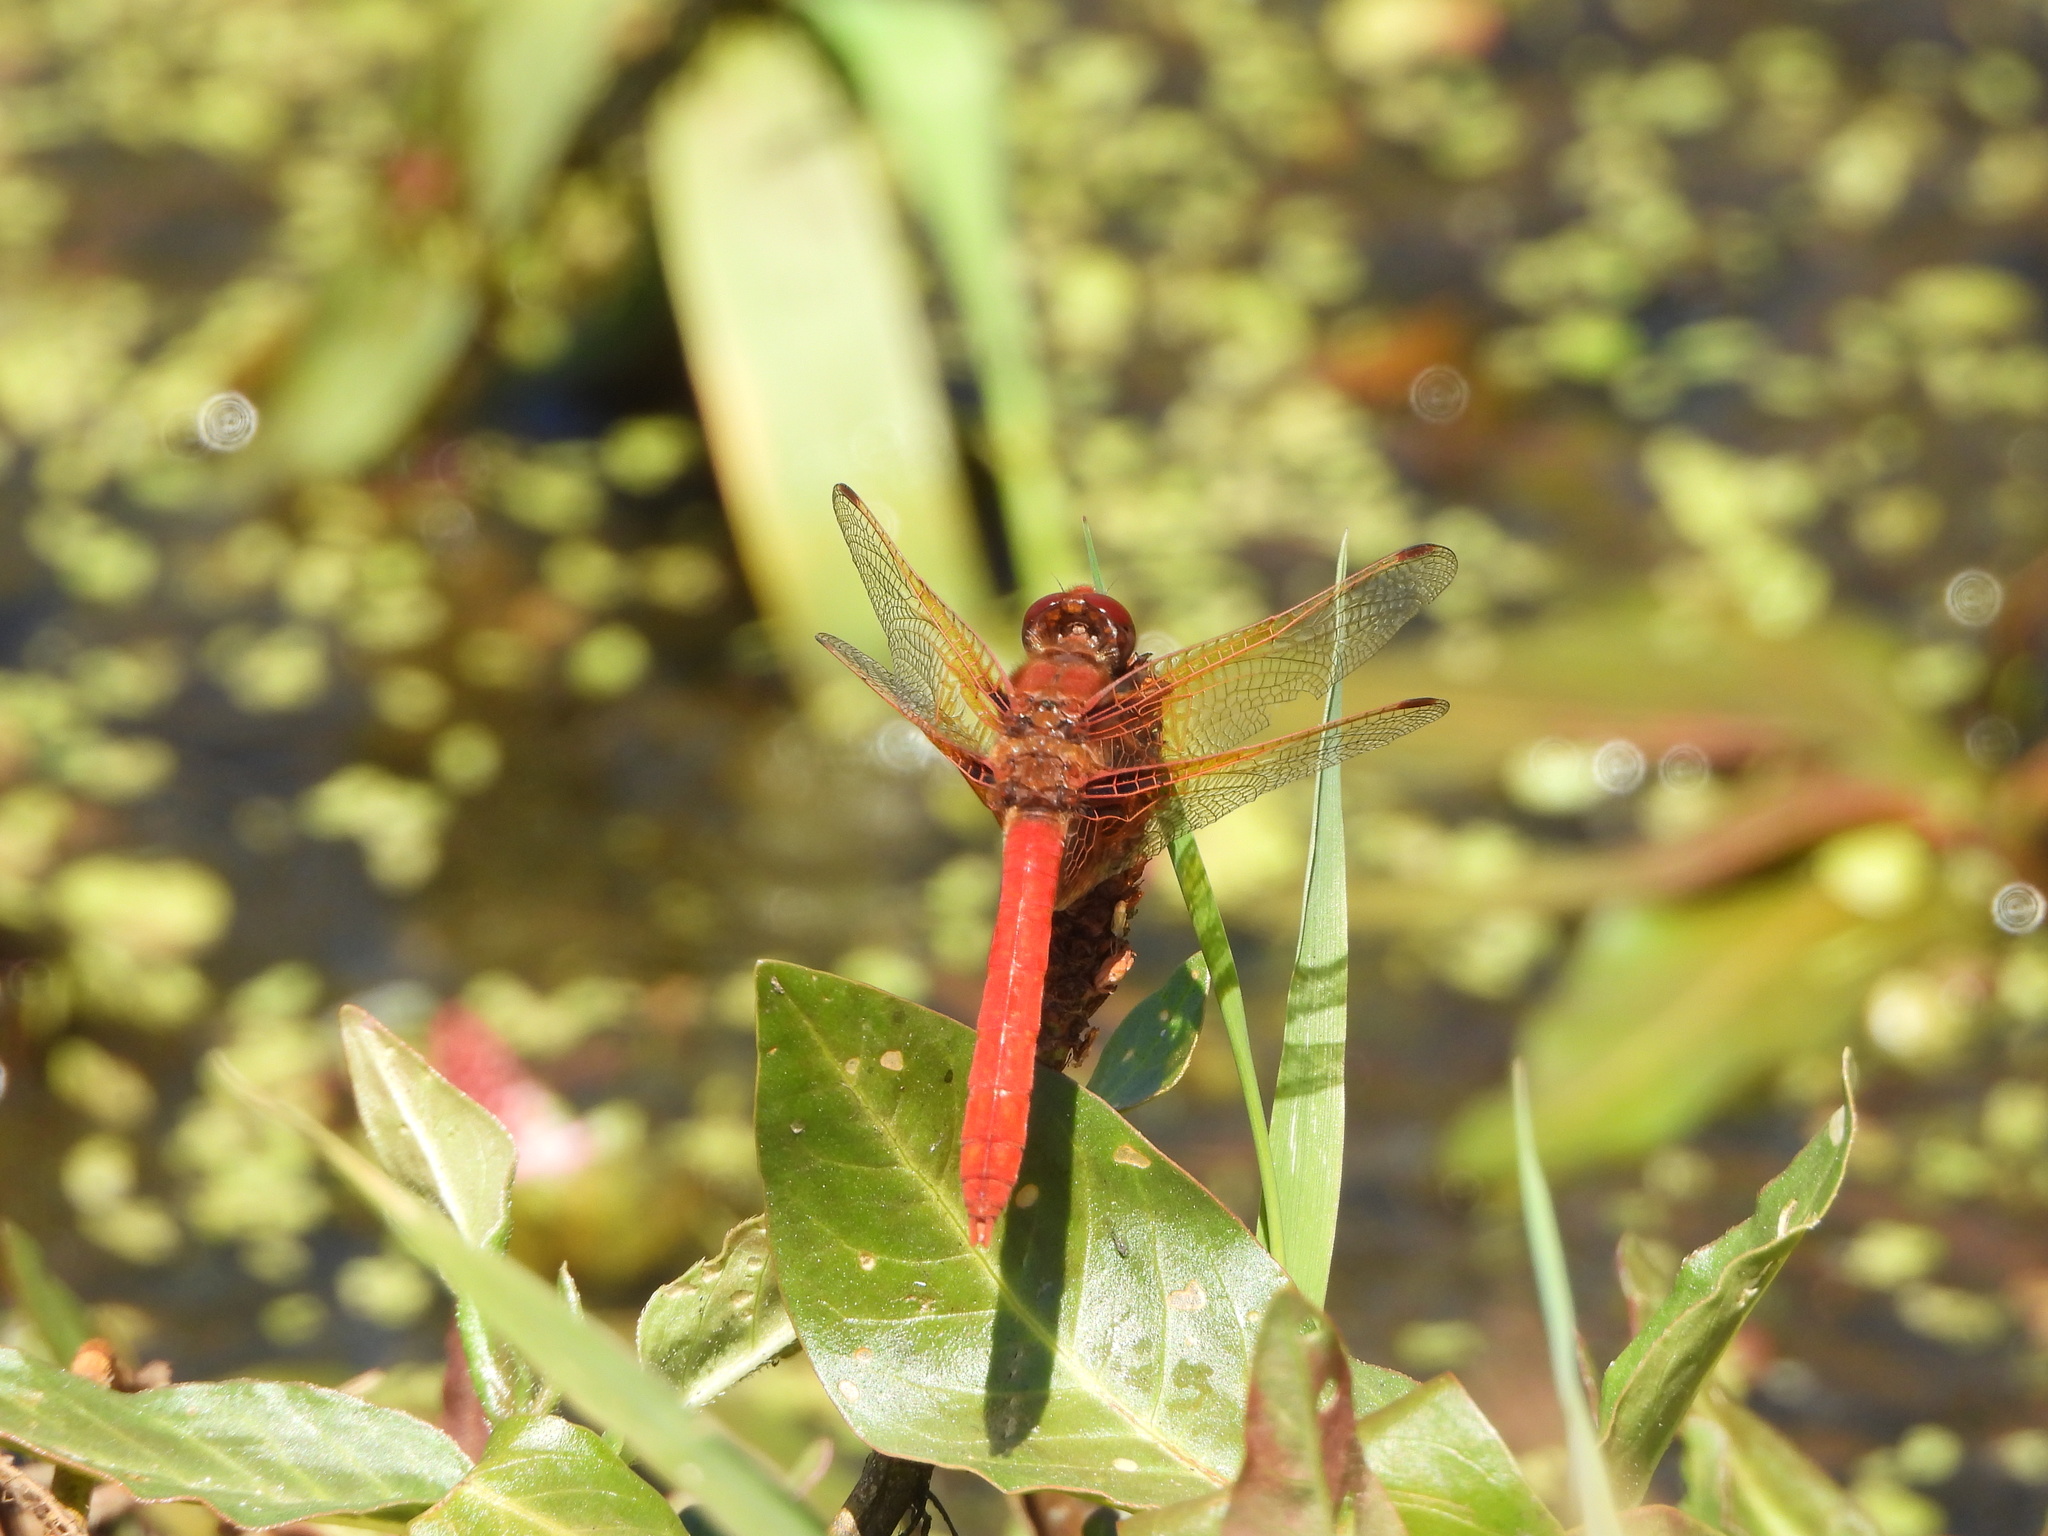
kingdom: Animalia
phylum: Arthropoda
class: Insecta
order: Odonata
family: Libellulidae
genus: Sympetrum
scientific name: Sympetrum illotum
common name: Cardinal meadowhawk
